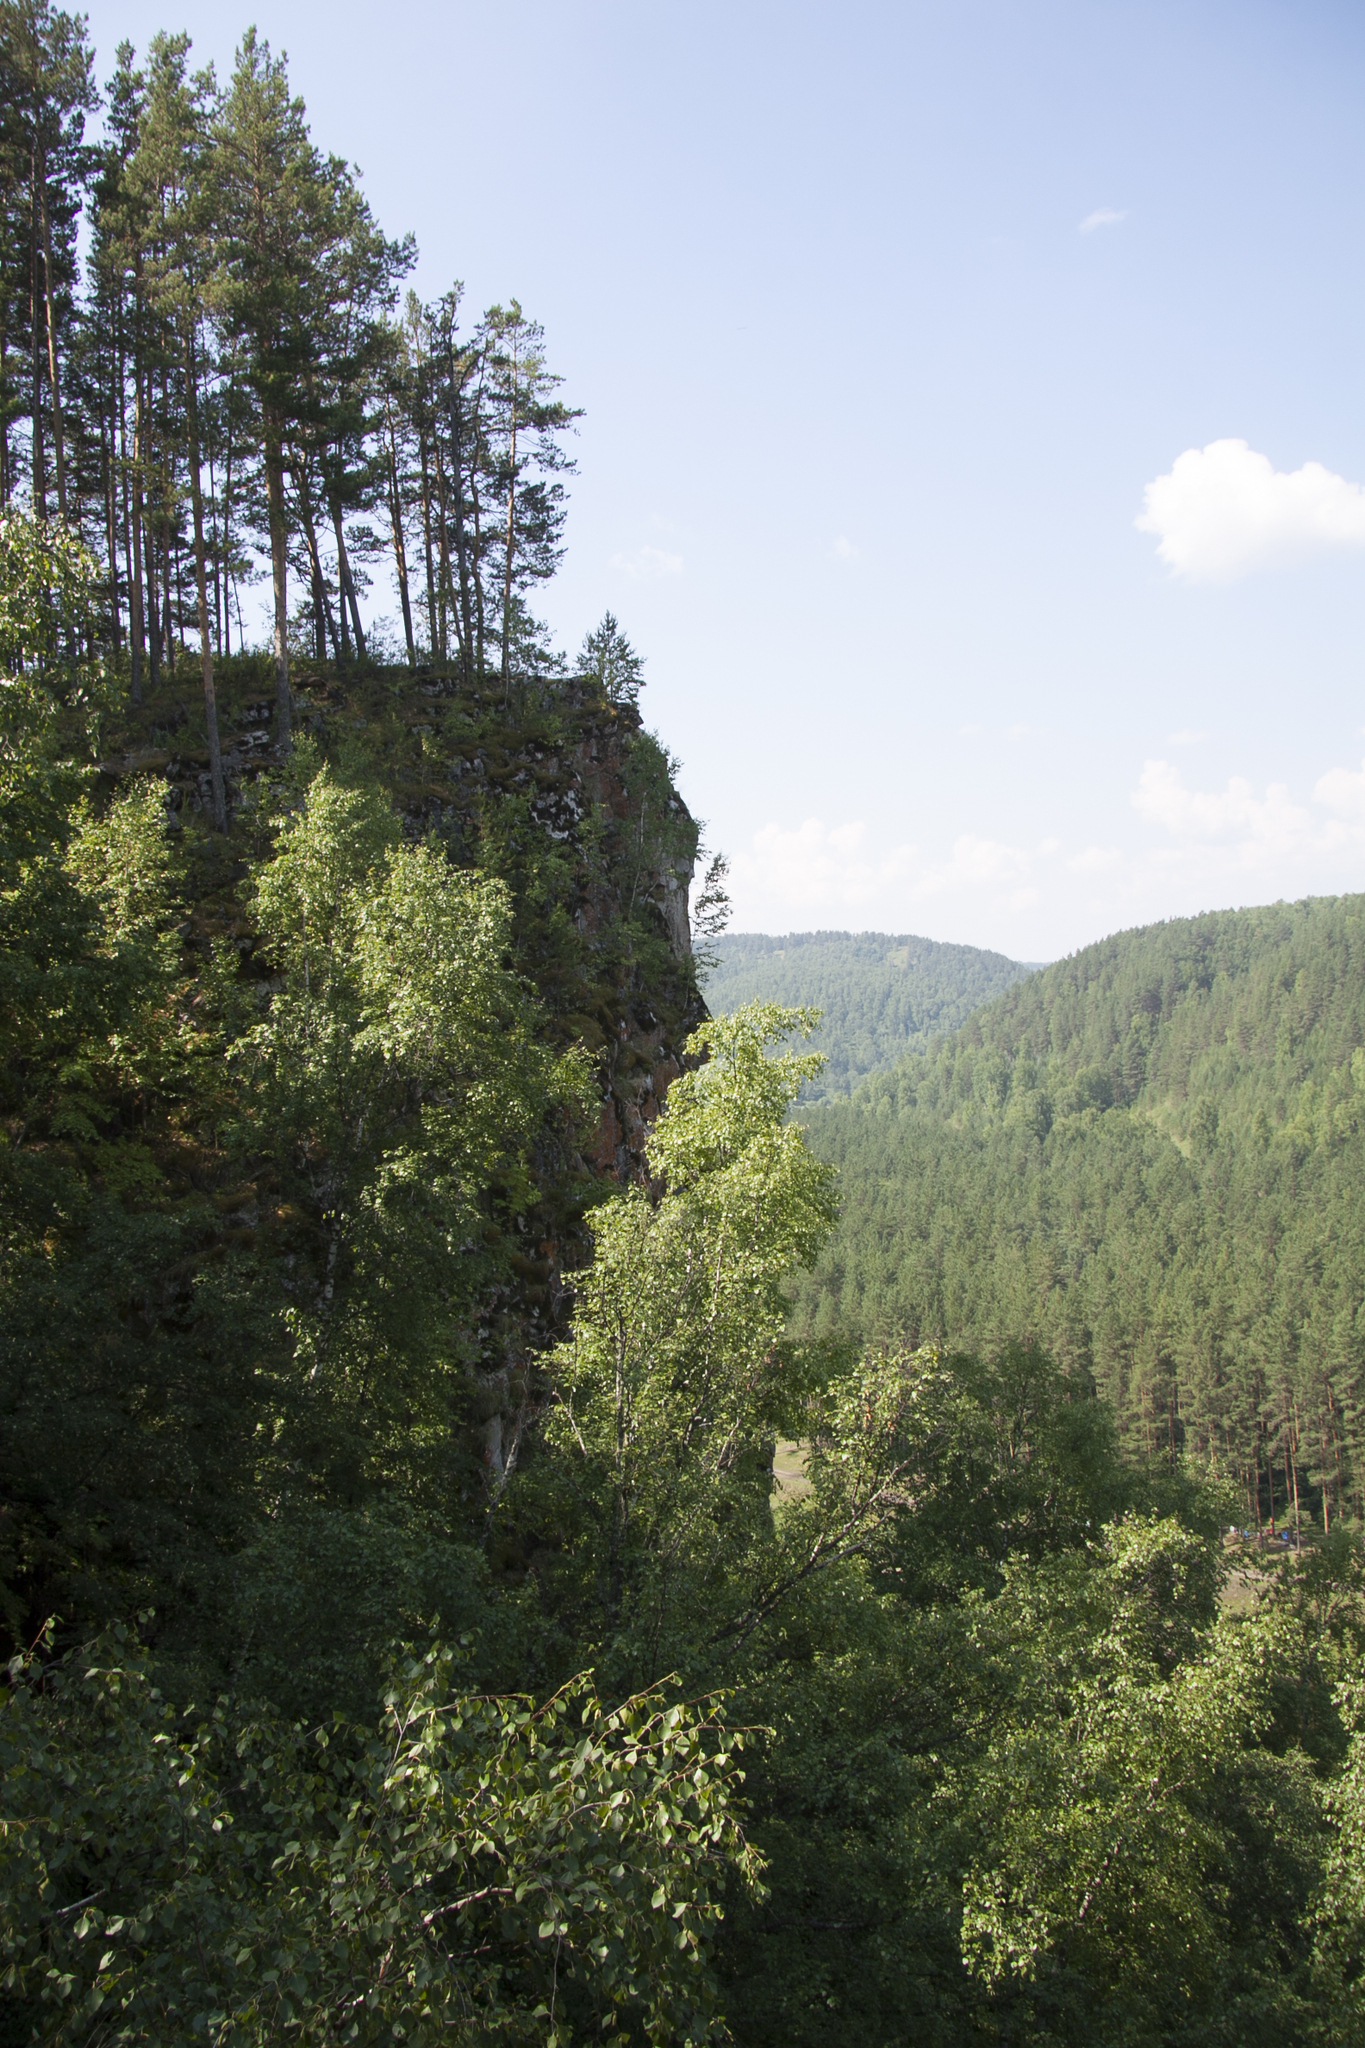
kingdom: Plantae
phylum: Tracheophyta
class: Pinopsida
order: Pinales
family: Pinaceae
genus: Pinus
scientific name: Pinus sylvestris
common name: Scots pine
